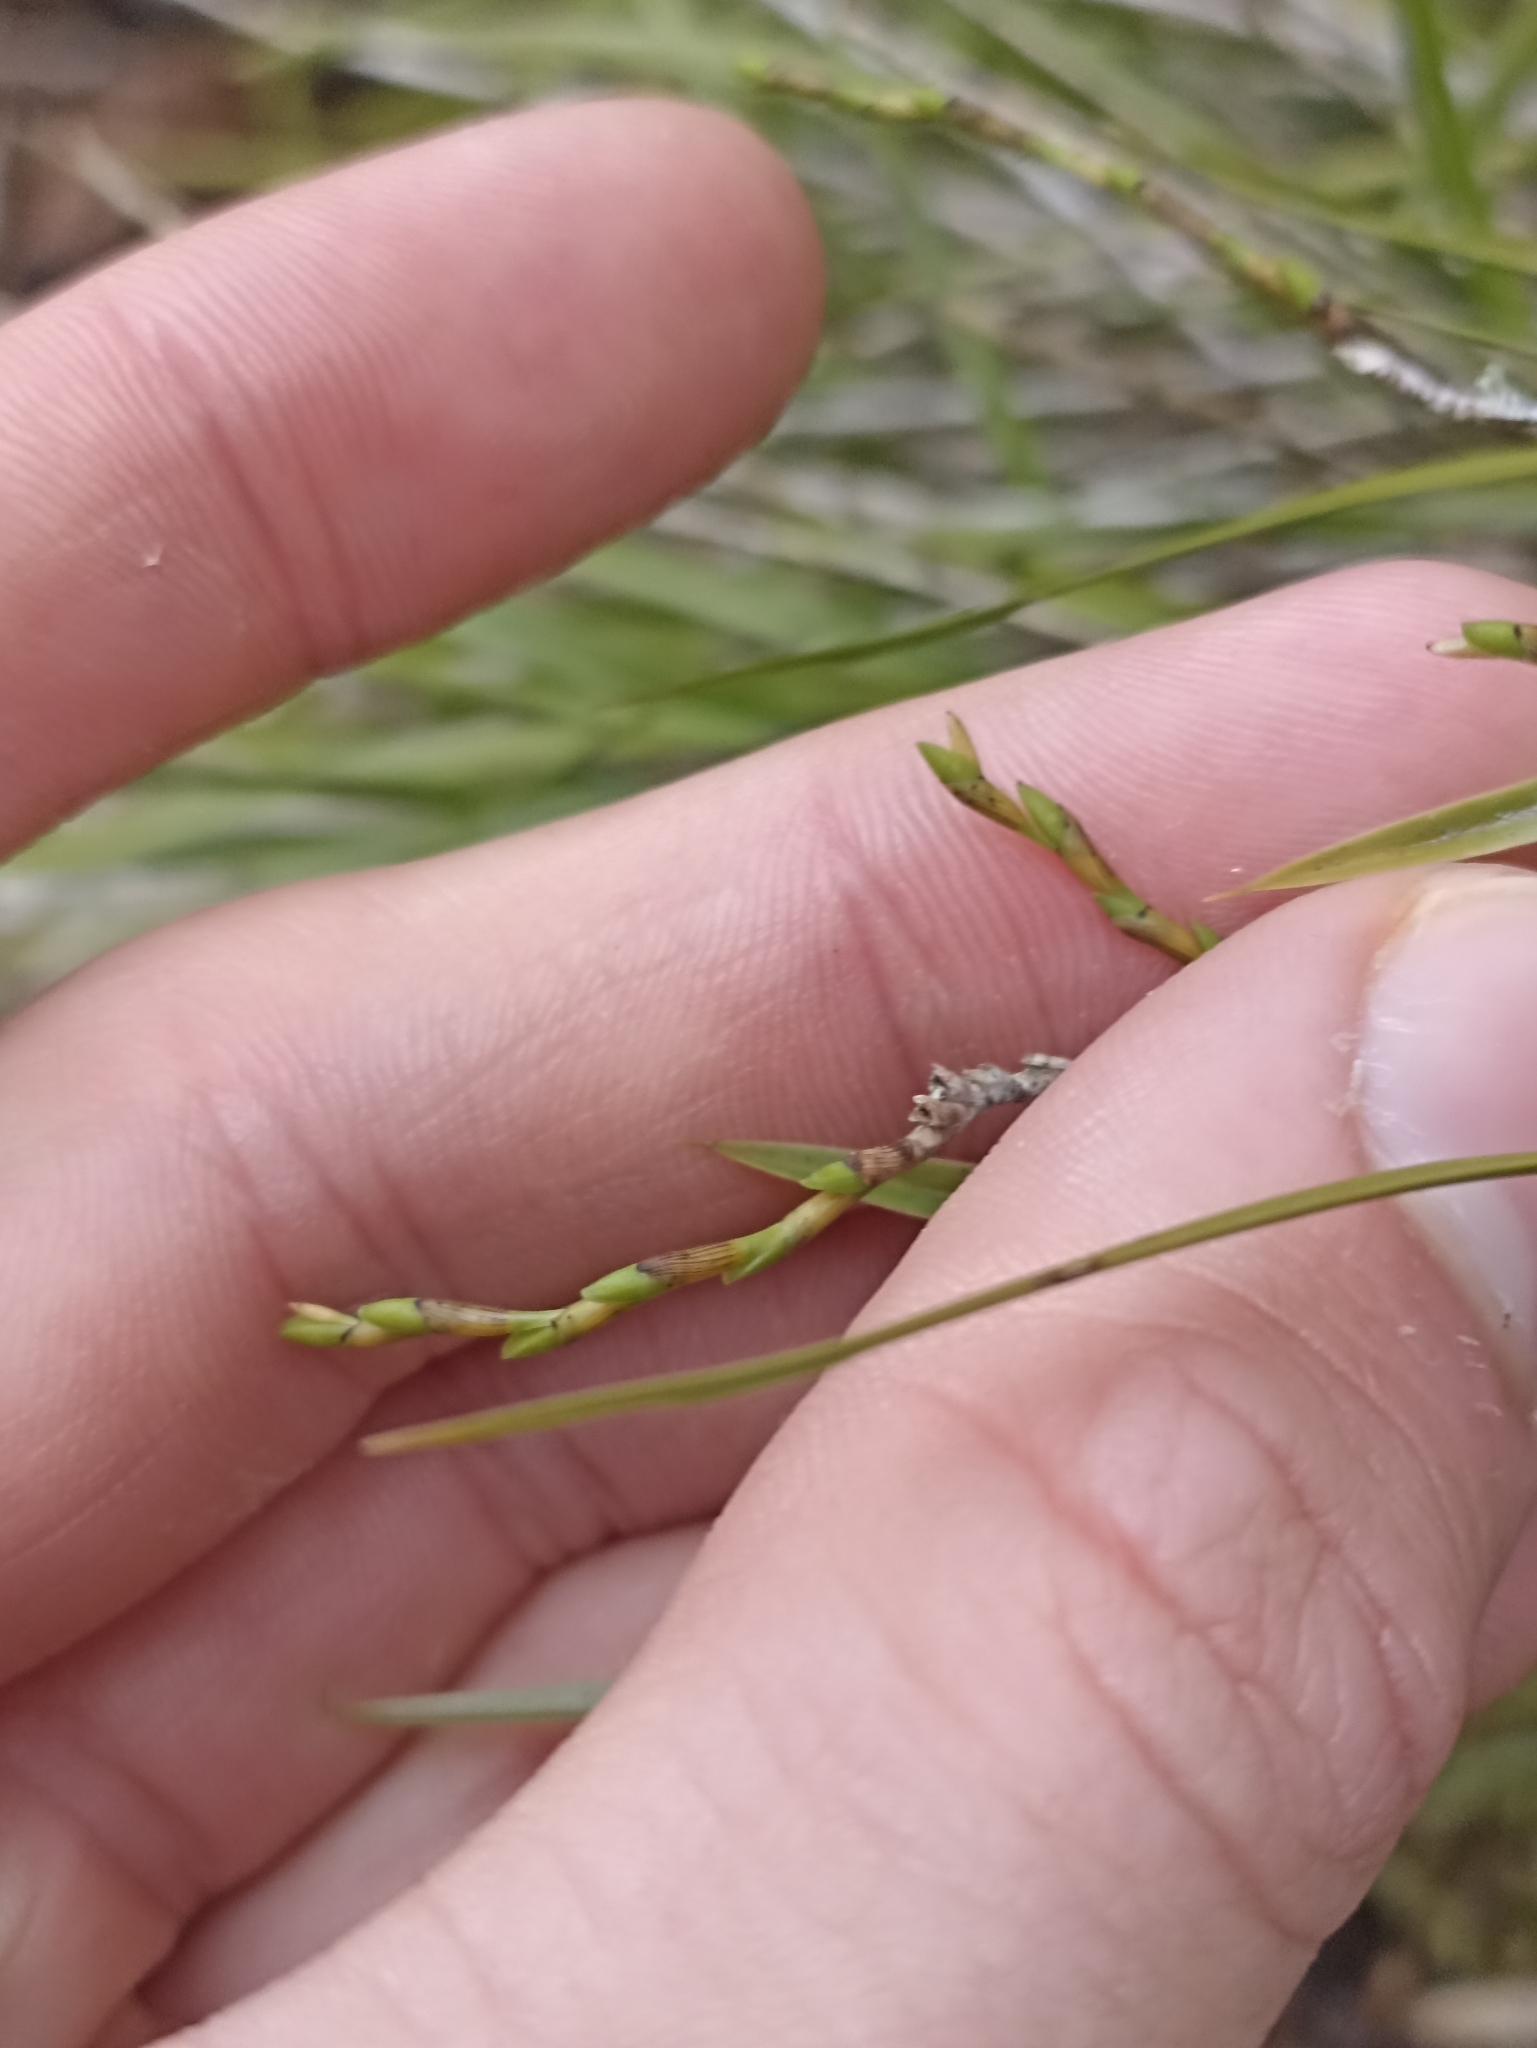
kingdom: Plantae
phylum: Tracheophyta
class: Liliopsida
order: Asparagales
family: Orchidaceae
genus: Earina
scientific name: Earina mucronata
